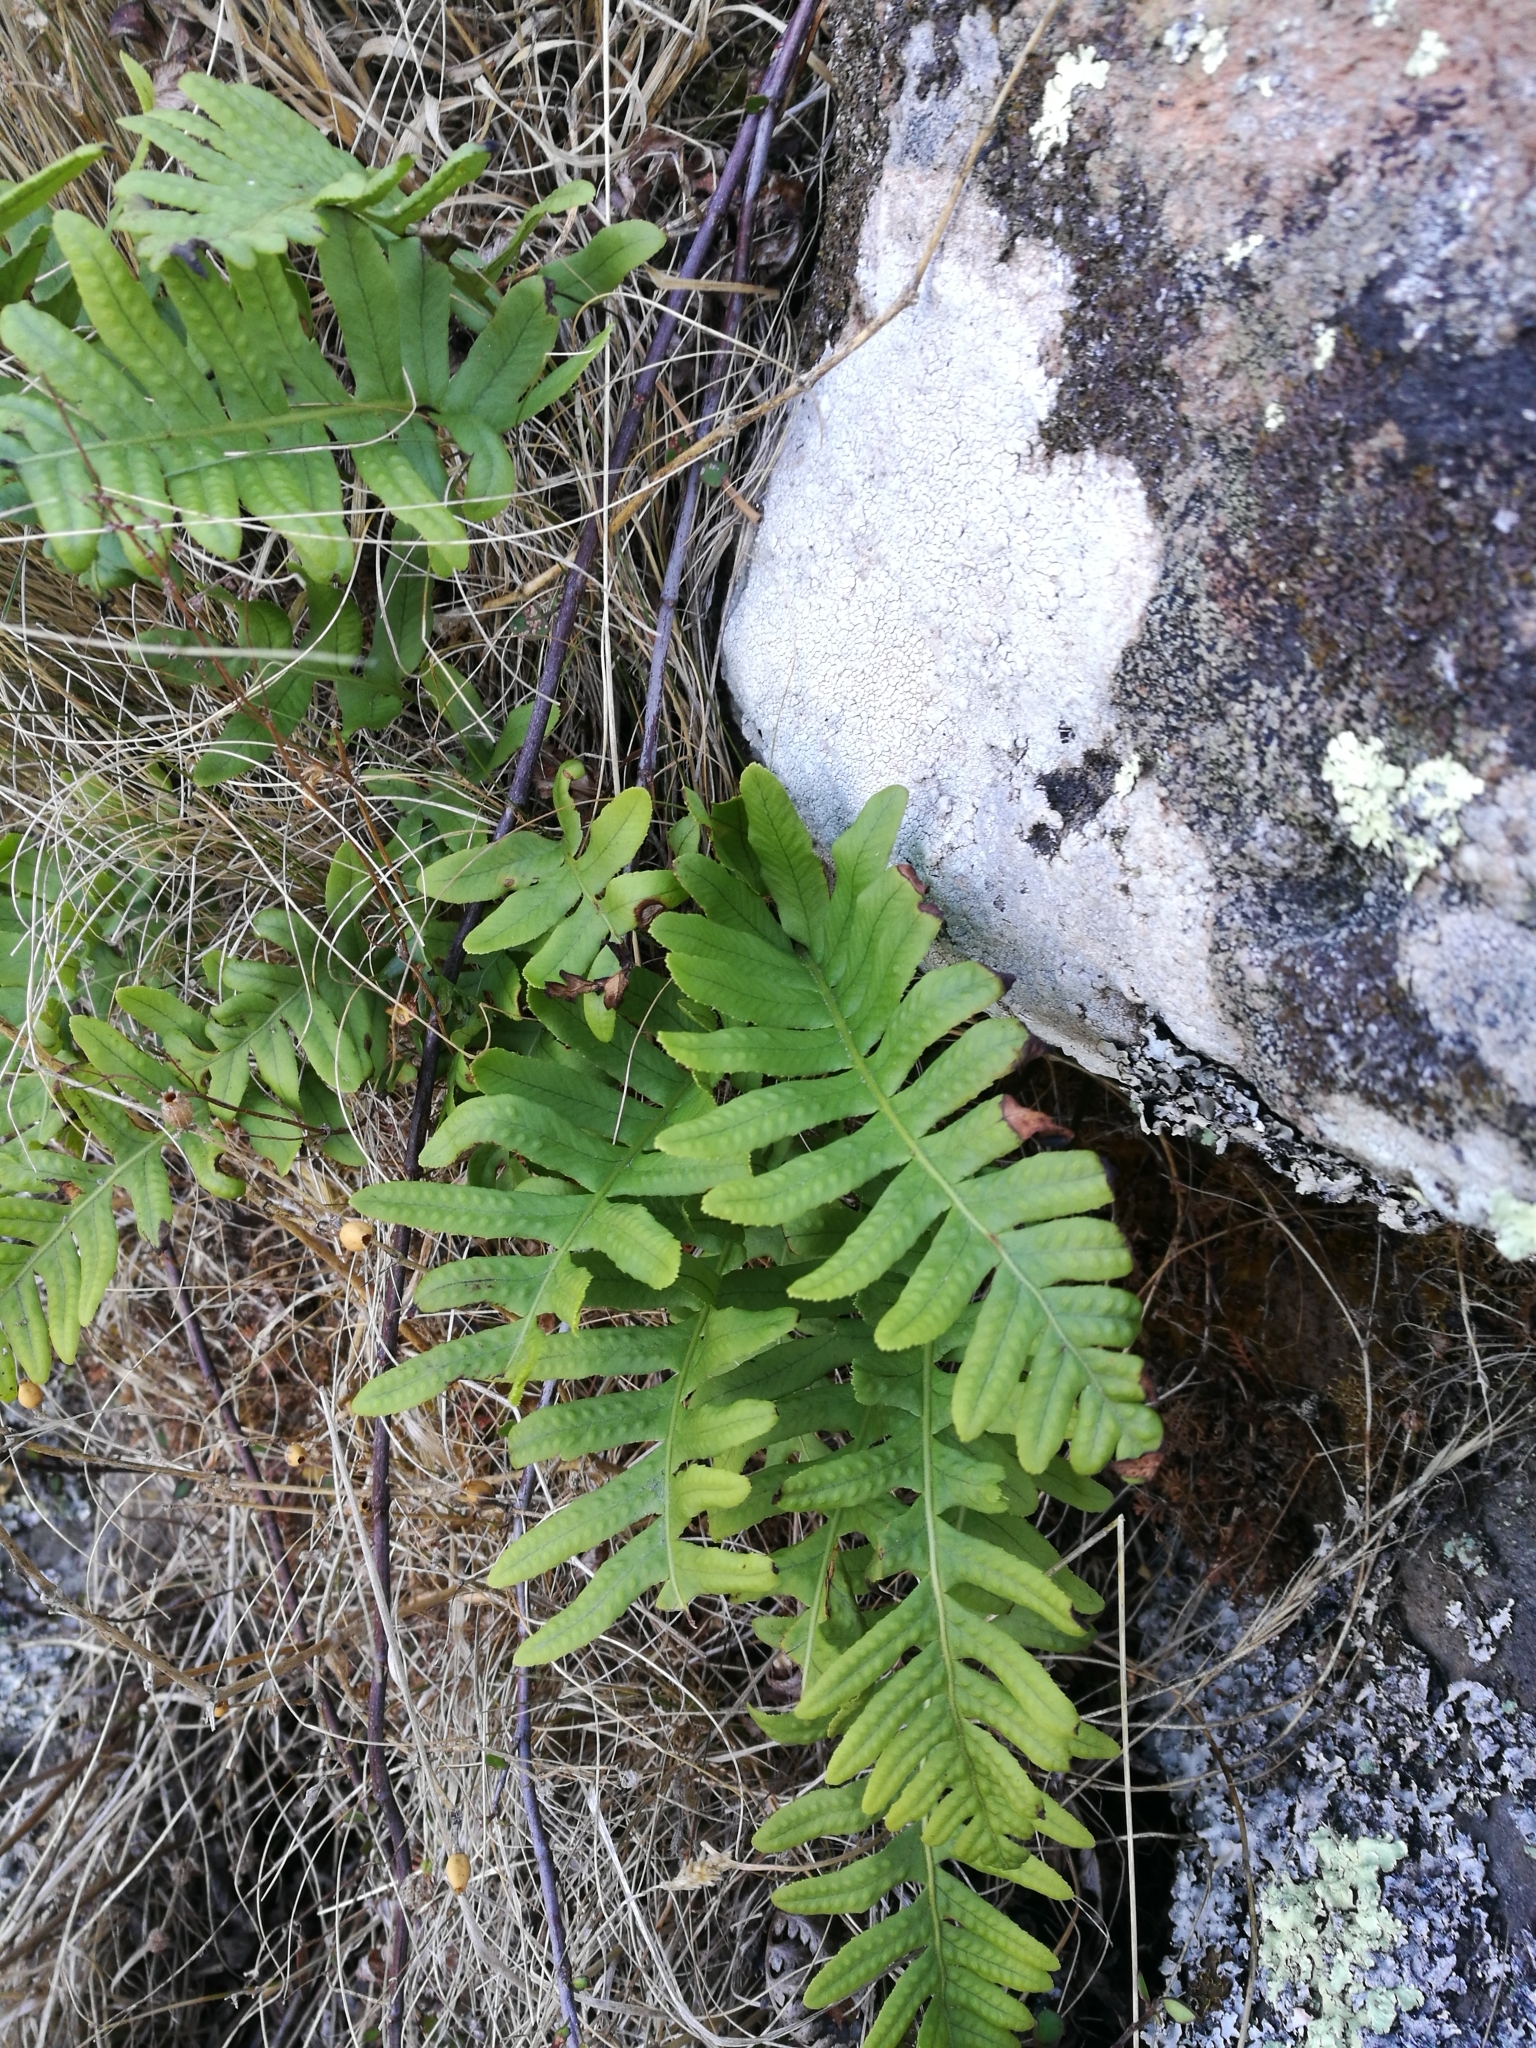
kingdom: Plantae
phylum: Tracheophyta
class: Polypodiopsida
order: Polypodiales
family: Polypodiaceae
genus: Polypodium
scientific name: Polypodium vulgare
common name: Common polypody
